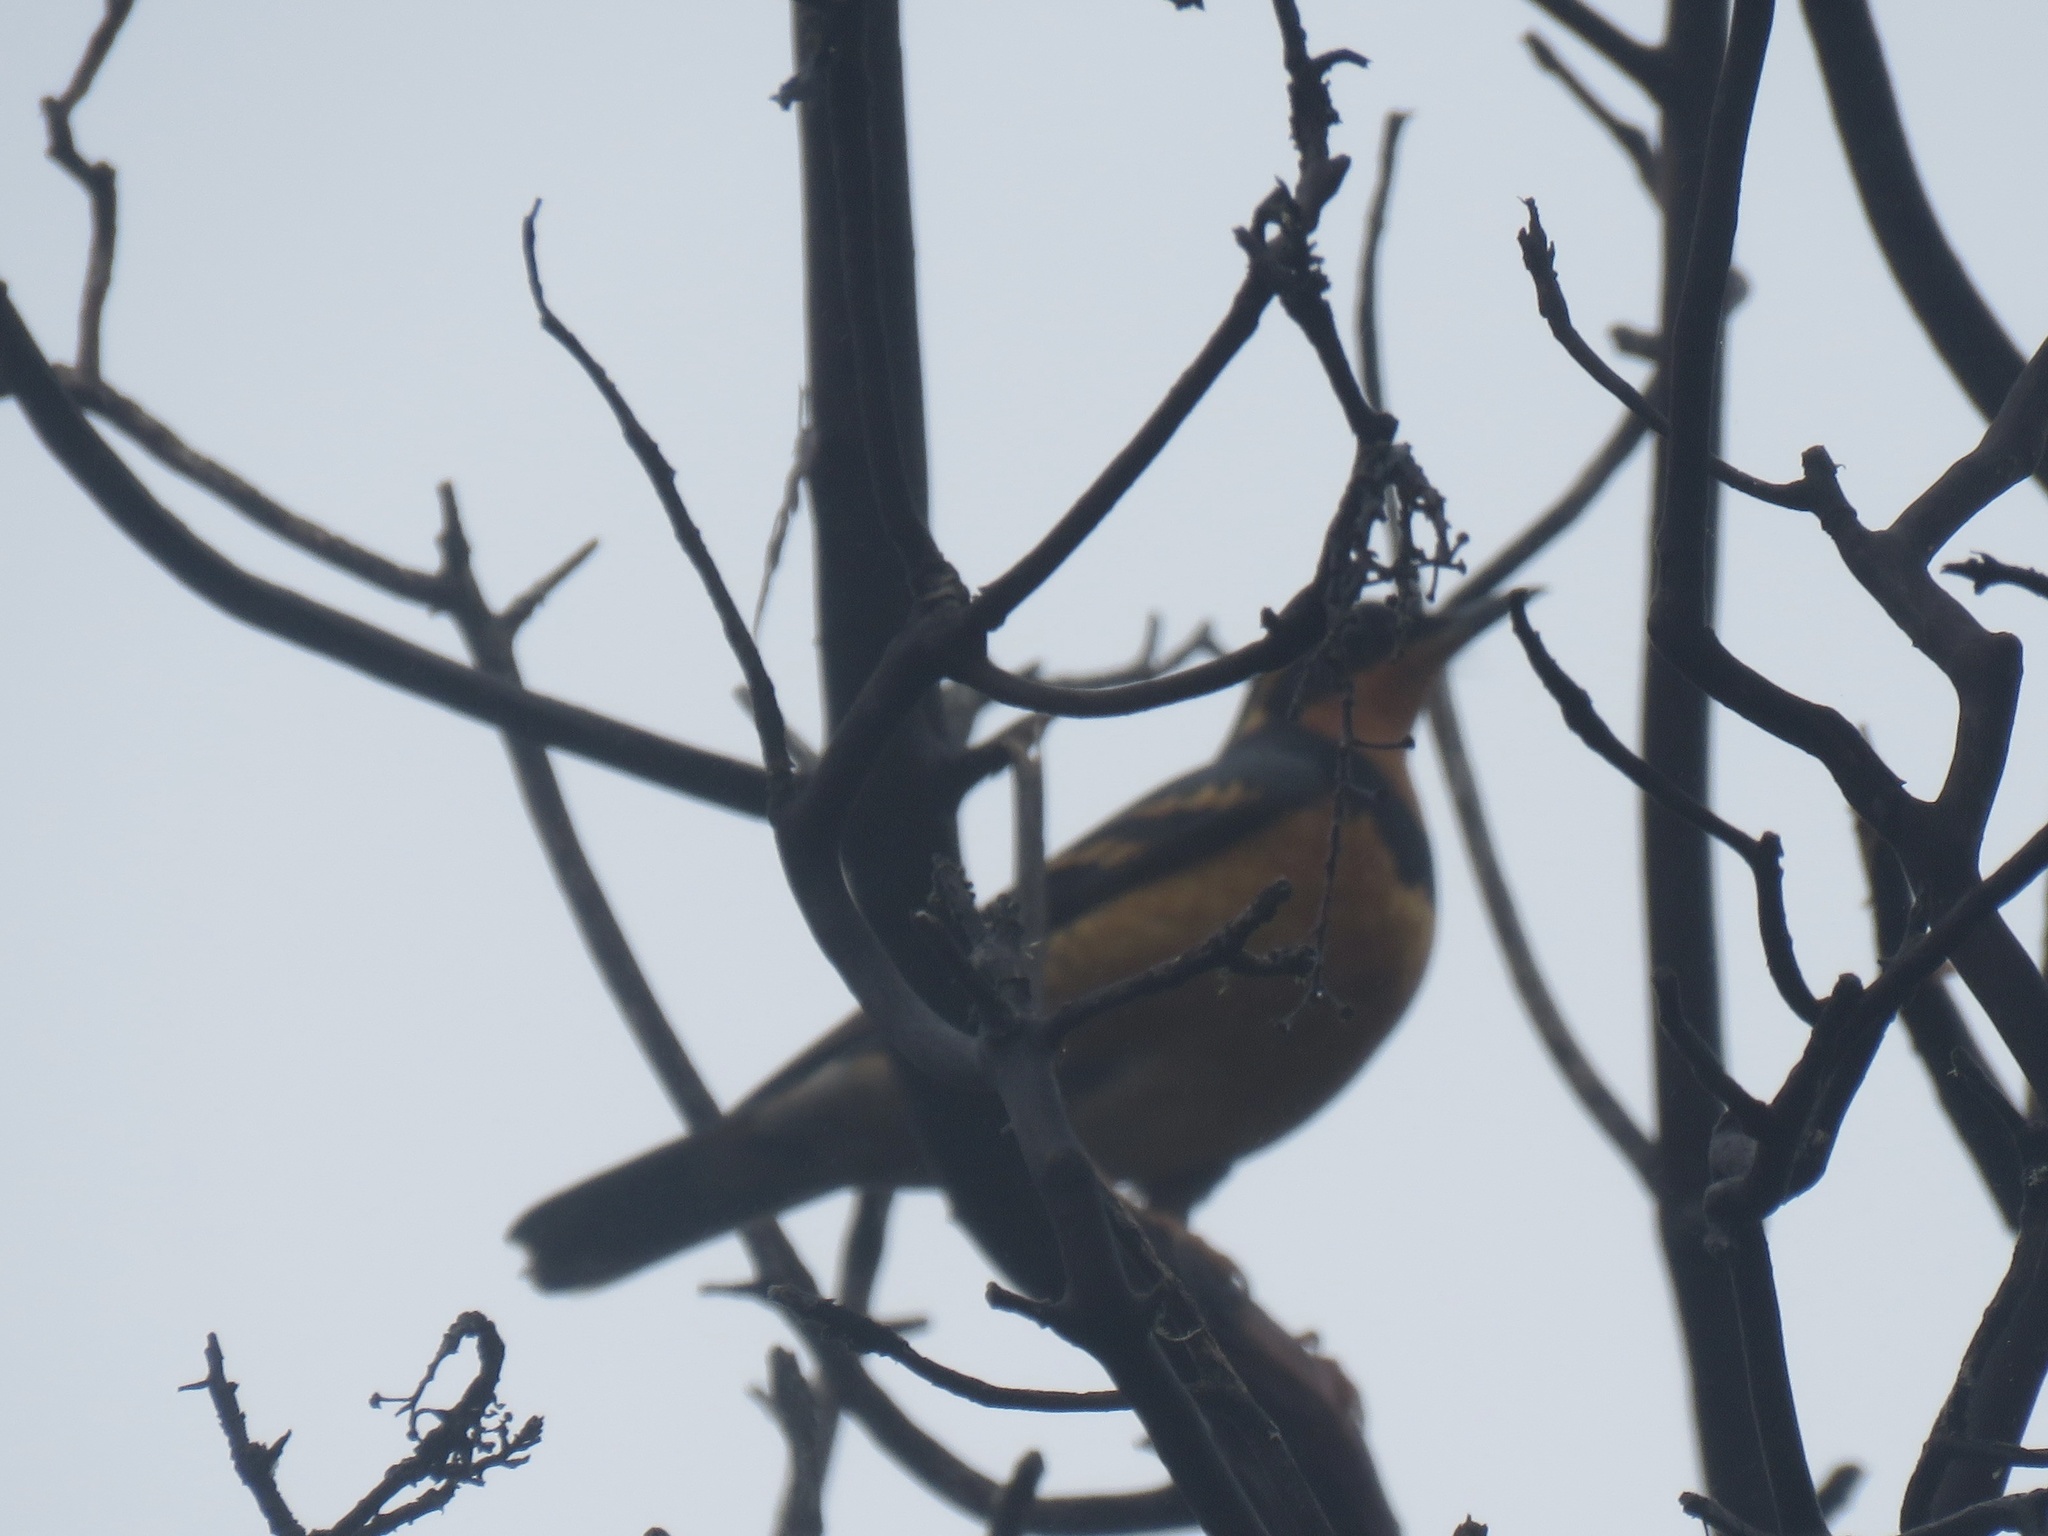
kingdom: Animalia
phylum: Chordata
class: Aves
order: Passeriformes
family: Turdidae
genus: Ixoreus
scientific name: Ixoreus naevius
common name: Varied thrush
